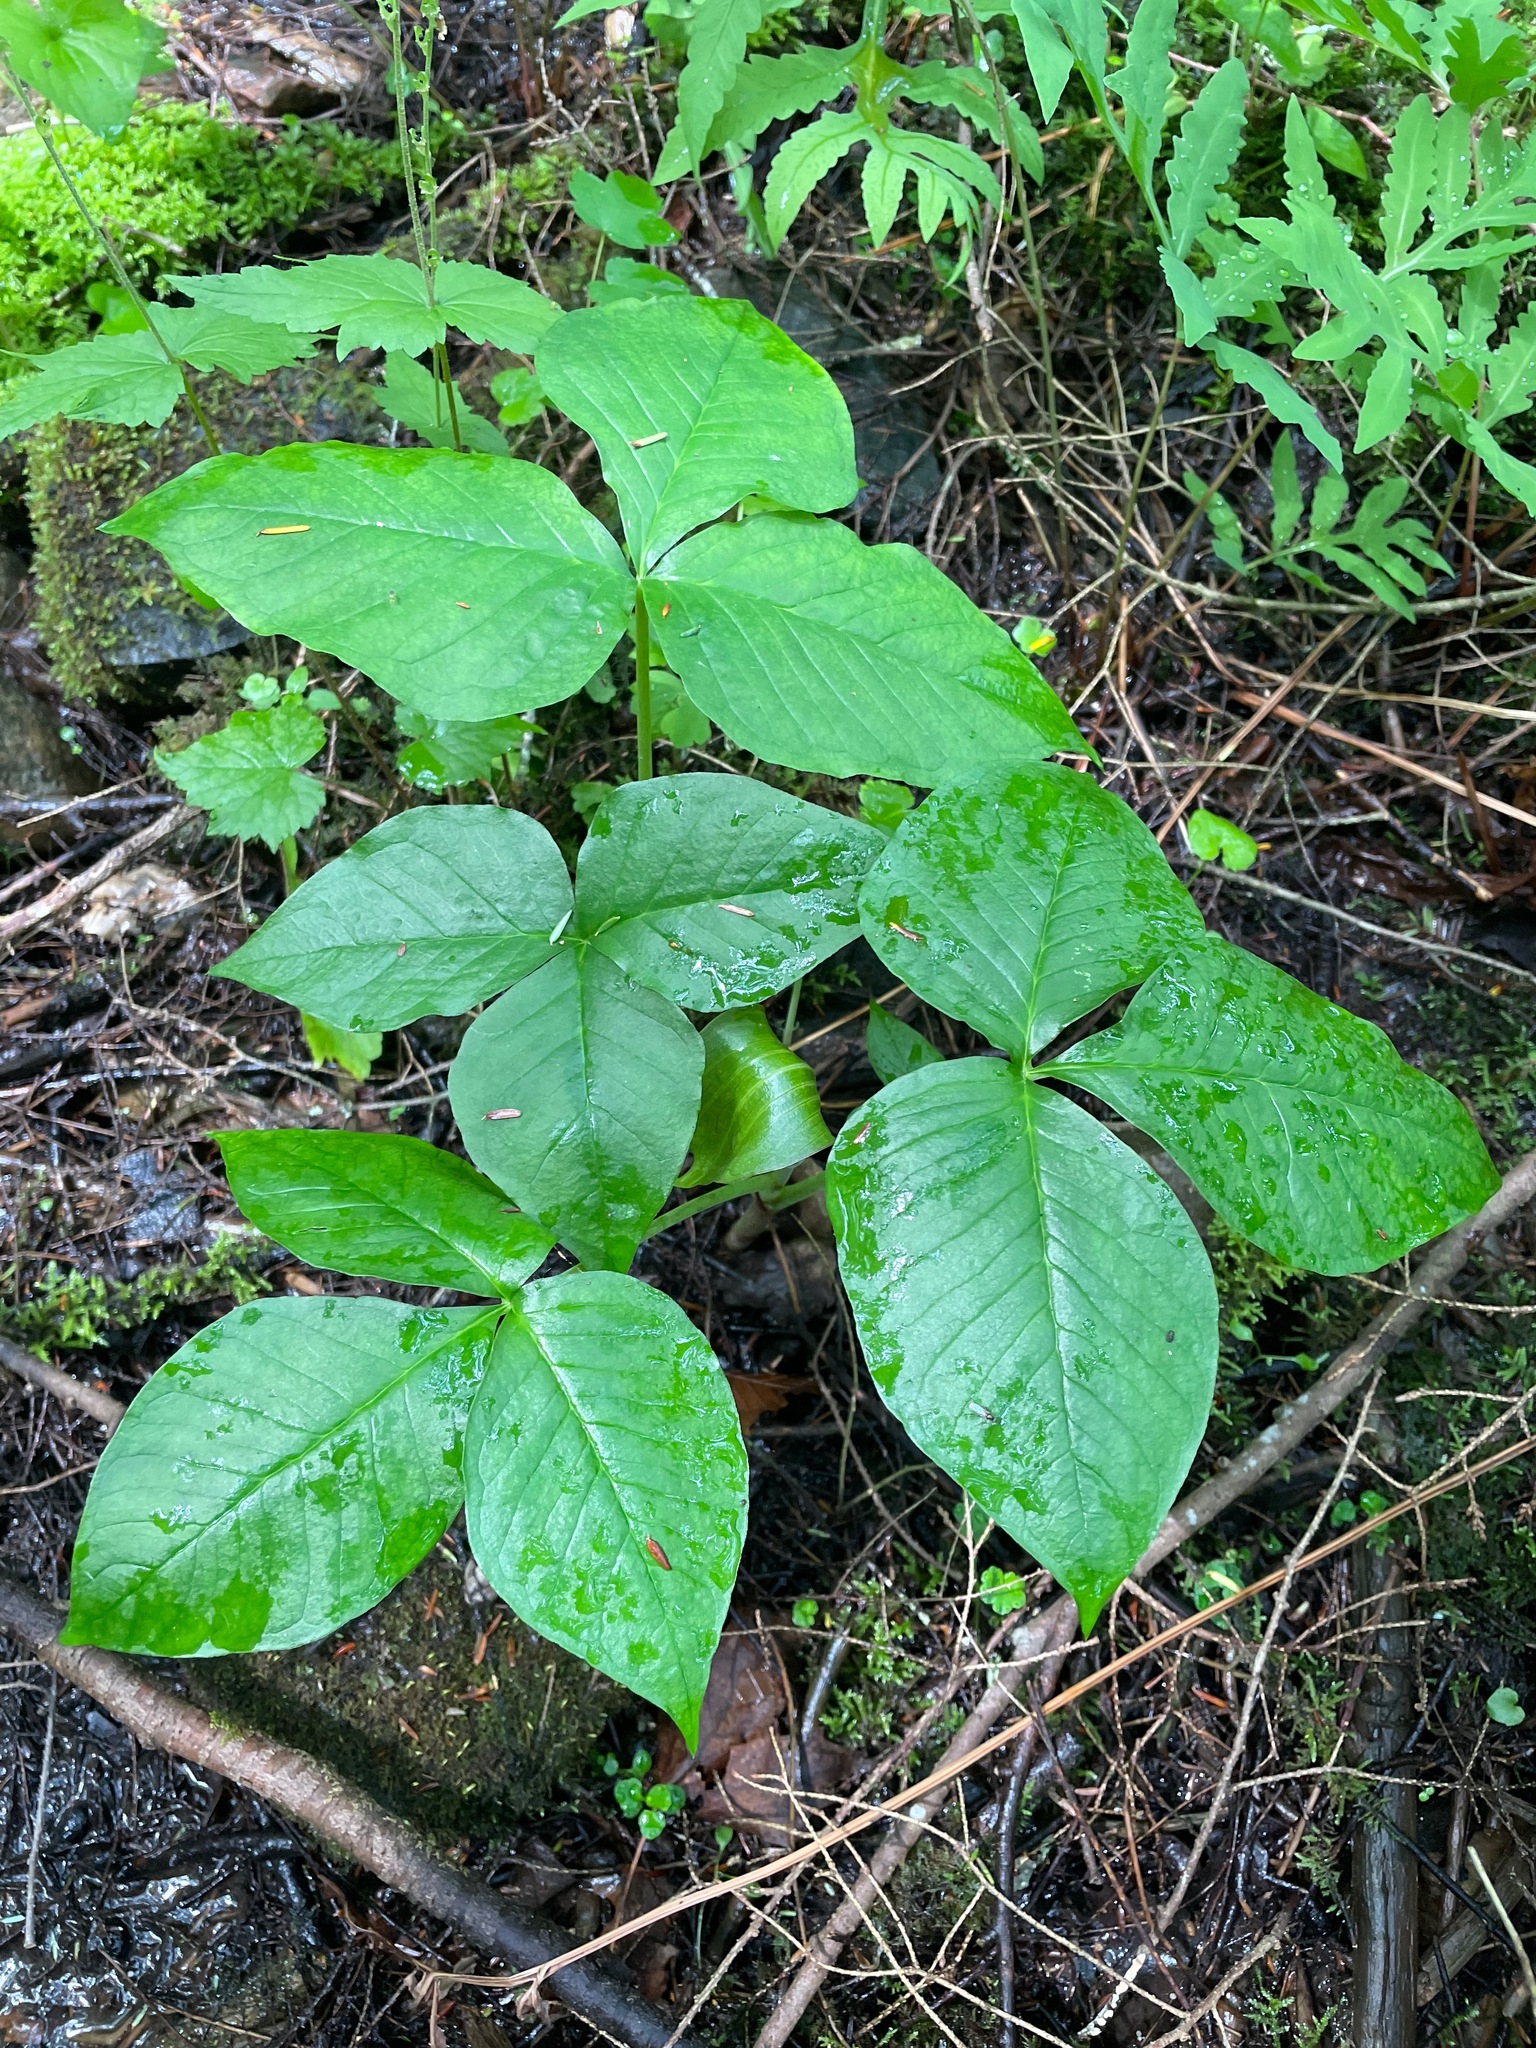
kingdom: Plantae
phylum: Tracheophyta
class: Liliopsida
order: Alismatales
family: Araceae
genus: Arisaema
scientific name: Arisaema triphyllum
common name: Jack-in-the-pulpit
